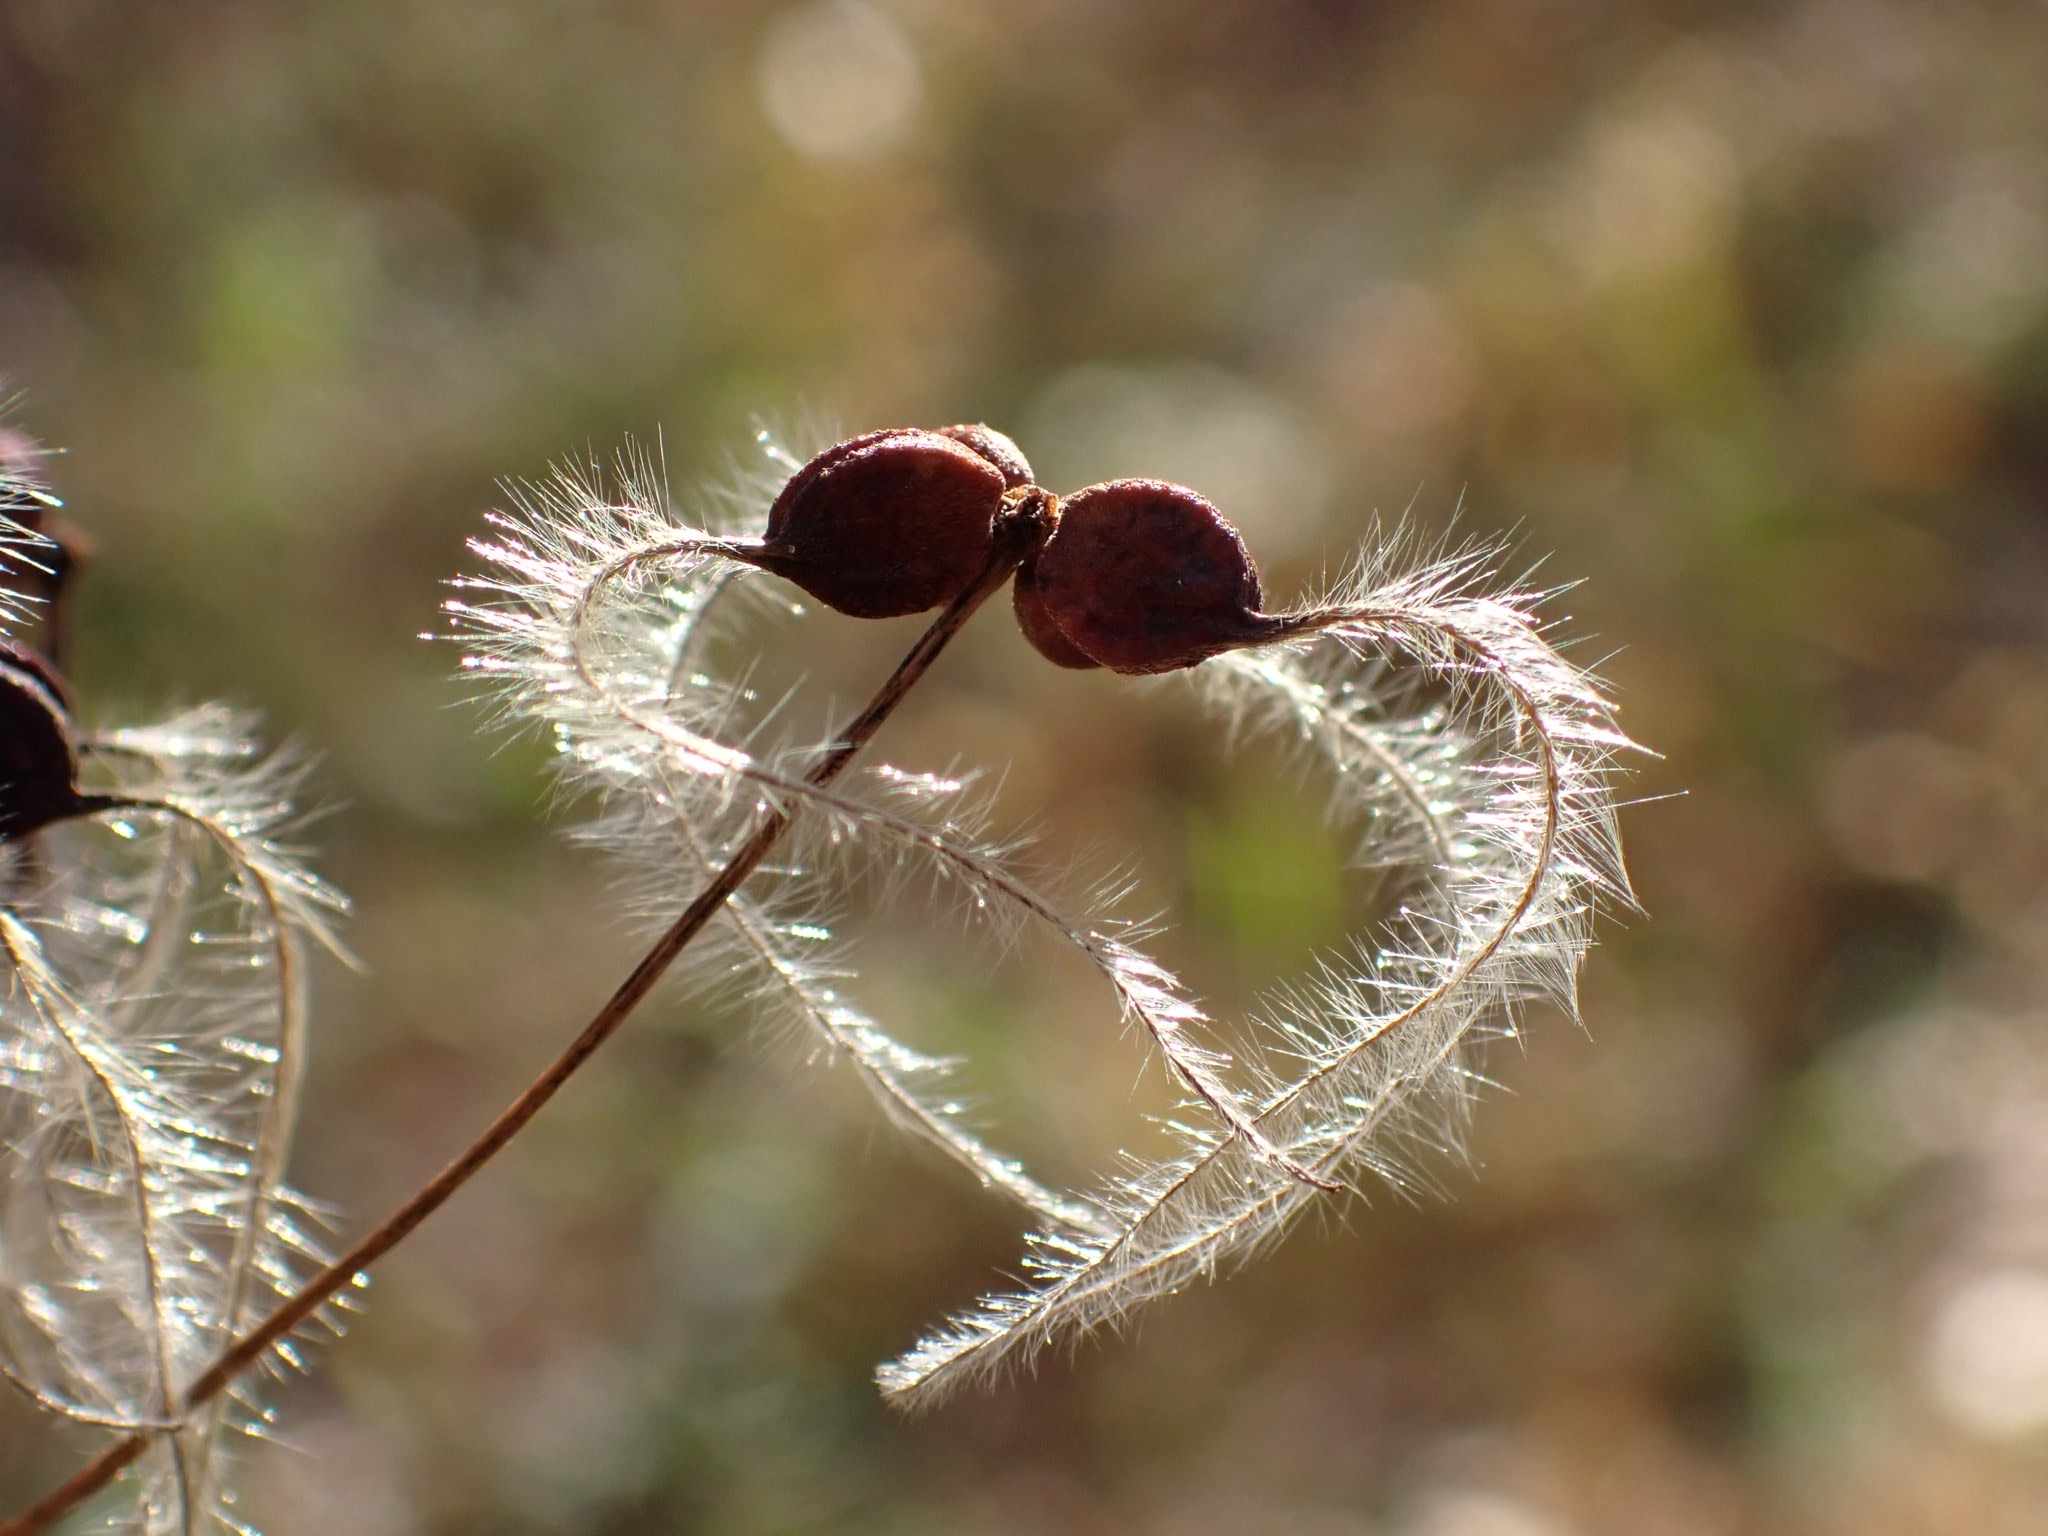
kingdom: Plantae
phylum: Tracheophyta
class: Magnoliopsida
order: Ranunculales
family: Ranunculaceae
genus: Clematis
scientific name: Clematis recta
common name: Ground clematis
